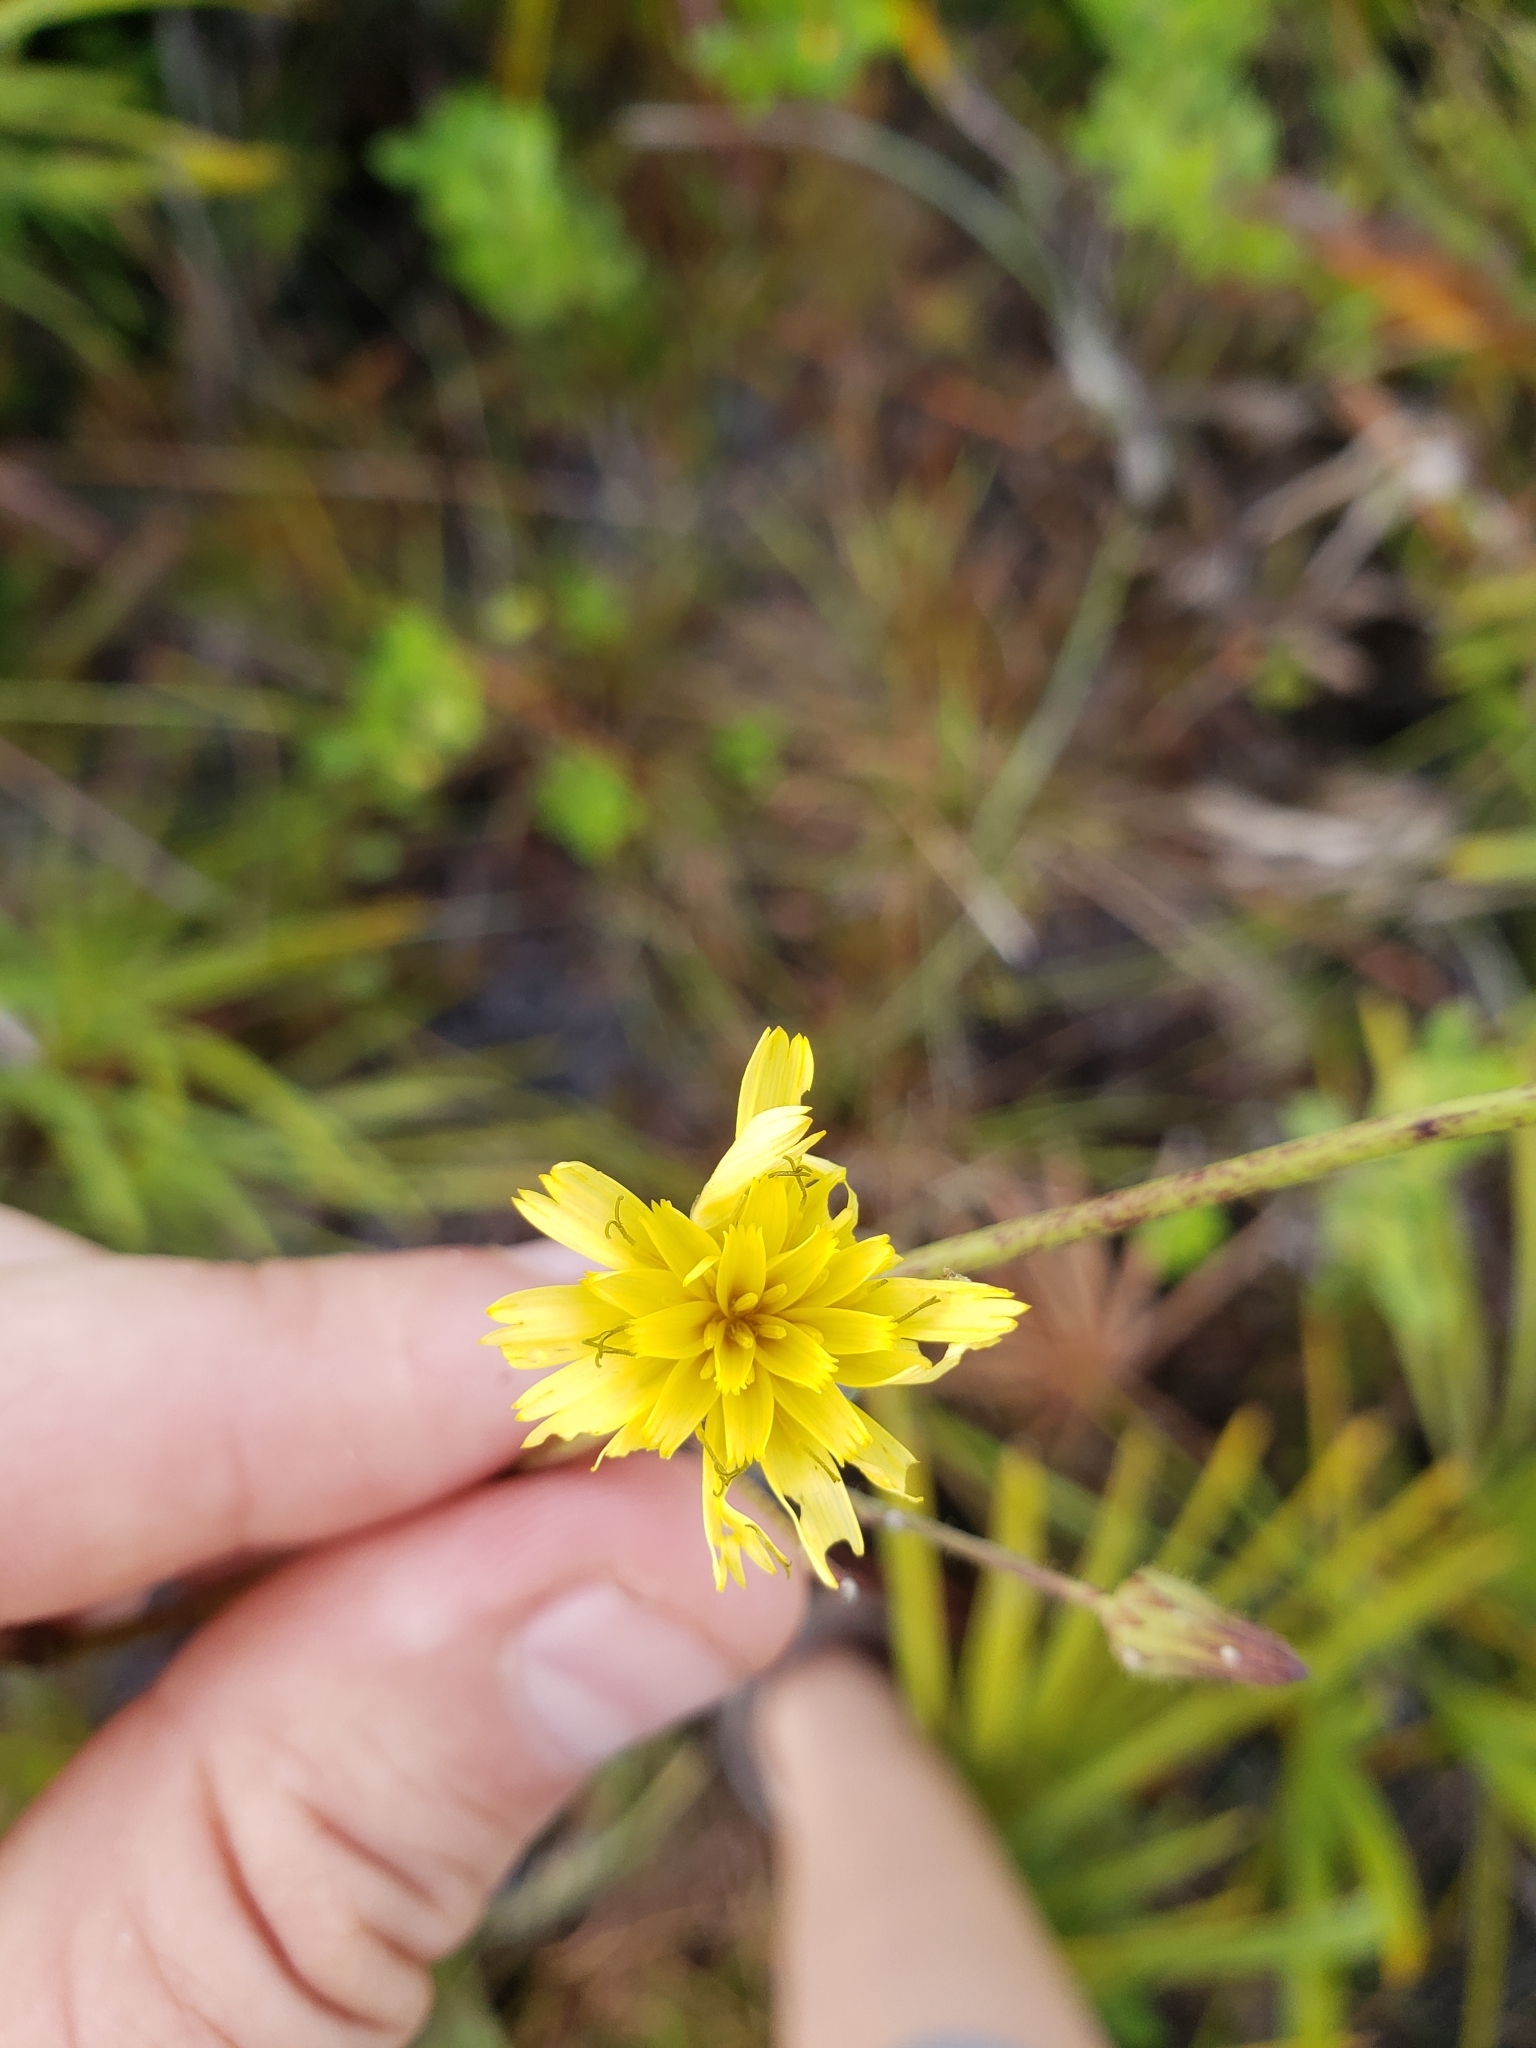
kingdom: Plantae
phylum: Tracheophyta
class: Magnoliopsida
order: Asterales
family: Asteraceae
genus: Hieracium
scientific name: Hieracium gronovii
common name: Beaked hawkweed
